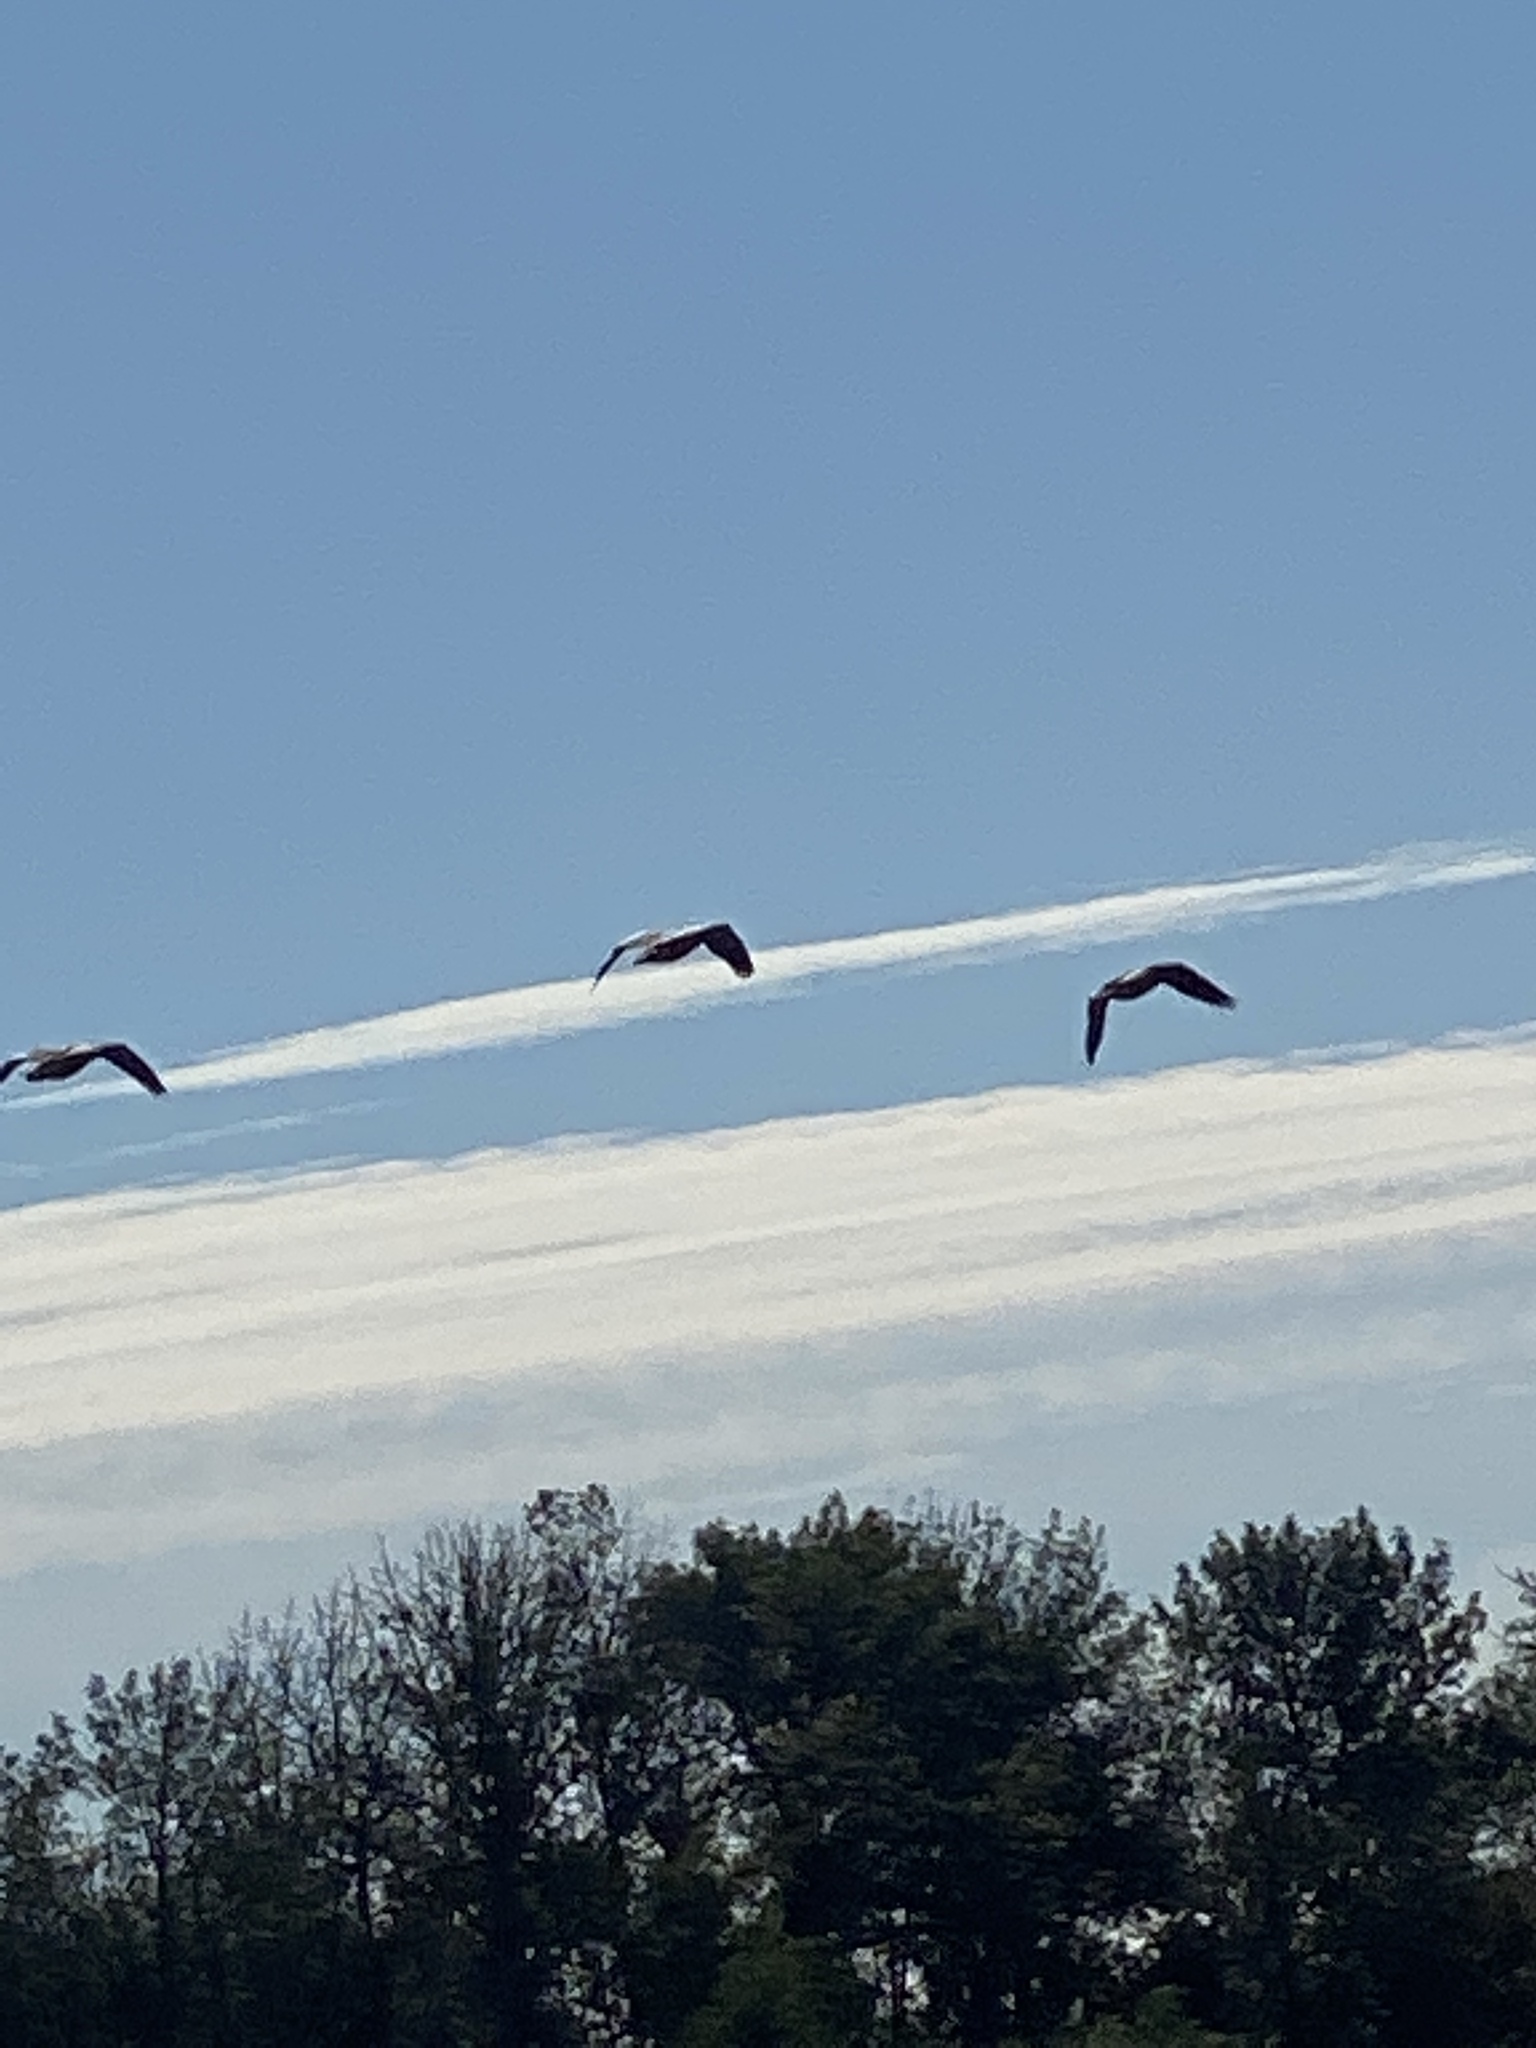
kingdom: Animalia
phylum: Chordata
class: Aves
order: Anseriformes
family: Anatidae
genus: Branta
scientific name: Branta canadensis
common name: Canada goose
